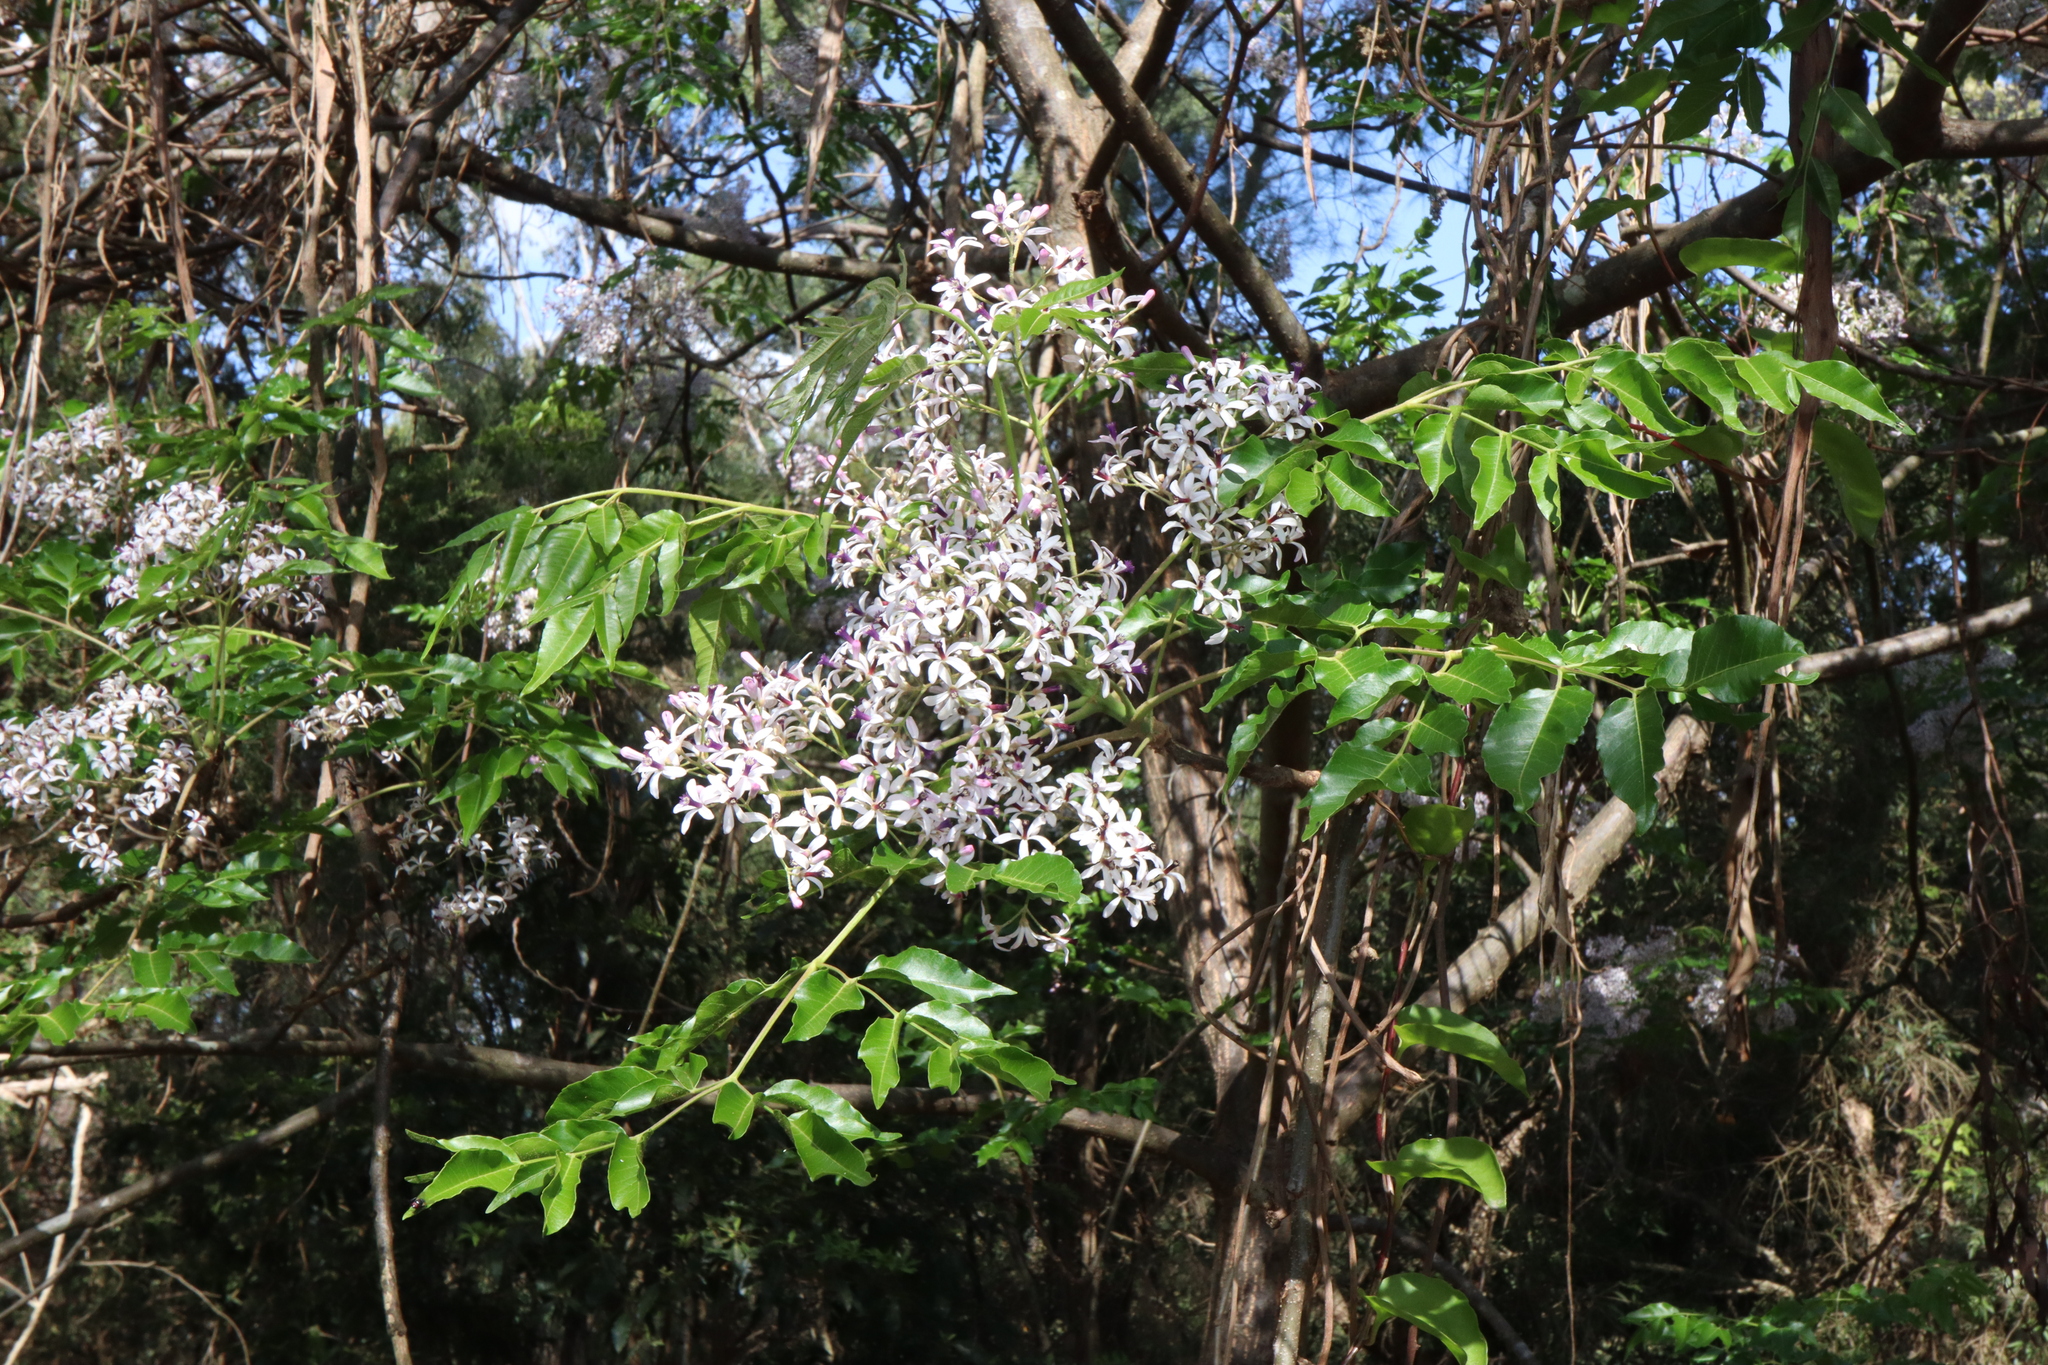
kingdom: Plantae
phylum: Tracheophyta
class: Magnoliopsida
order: Sapindales
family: Meliaceae
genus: Melia
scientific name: Melia azedarach
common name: Chinaberrytree
